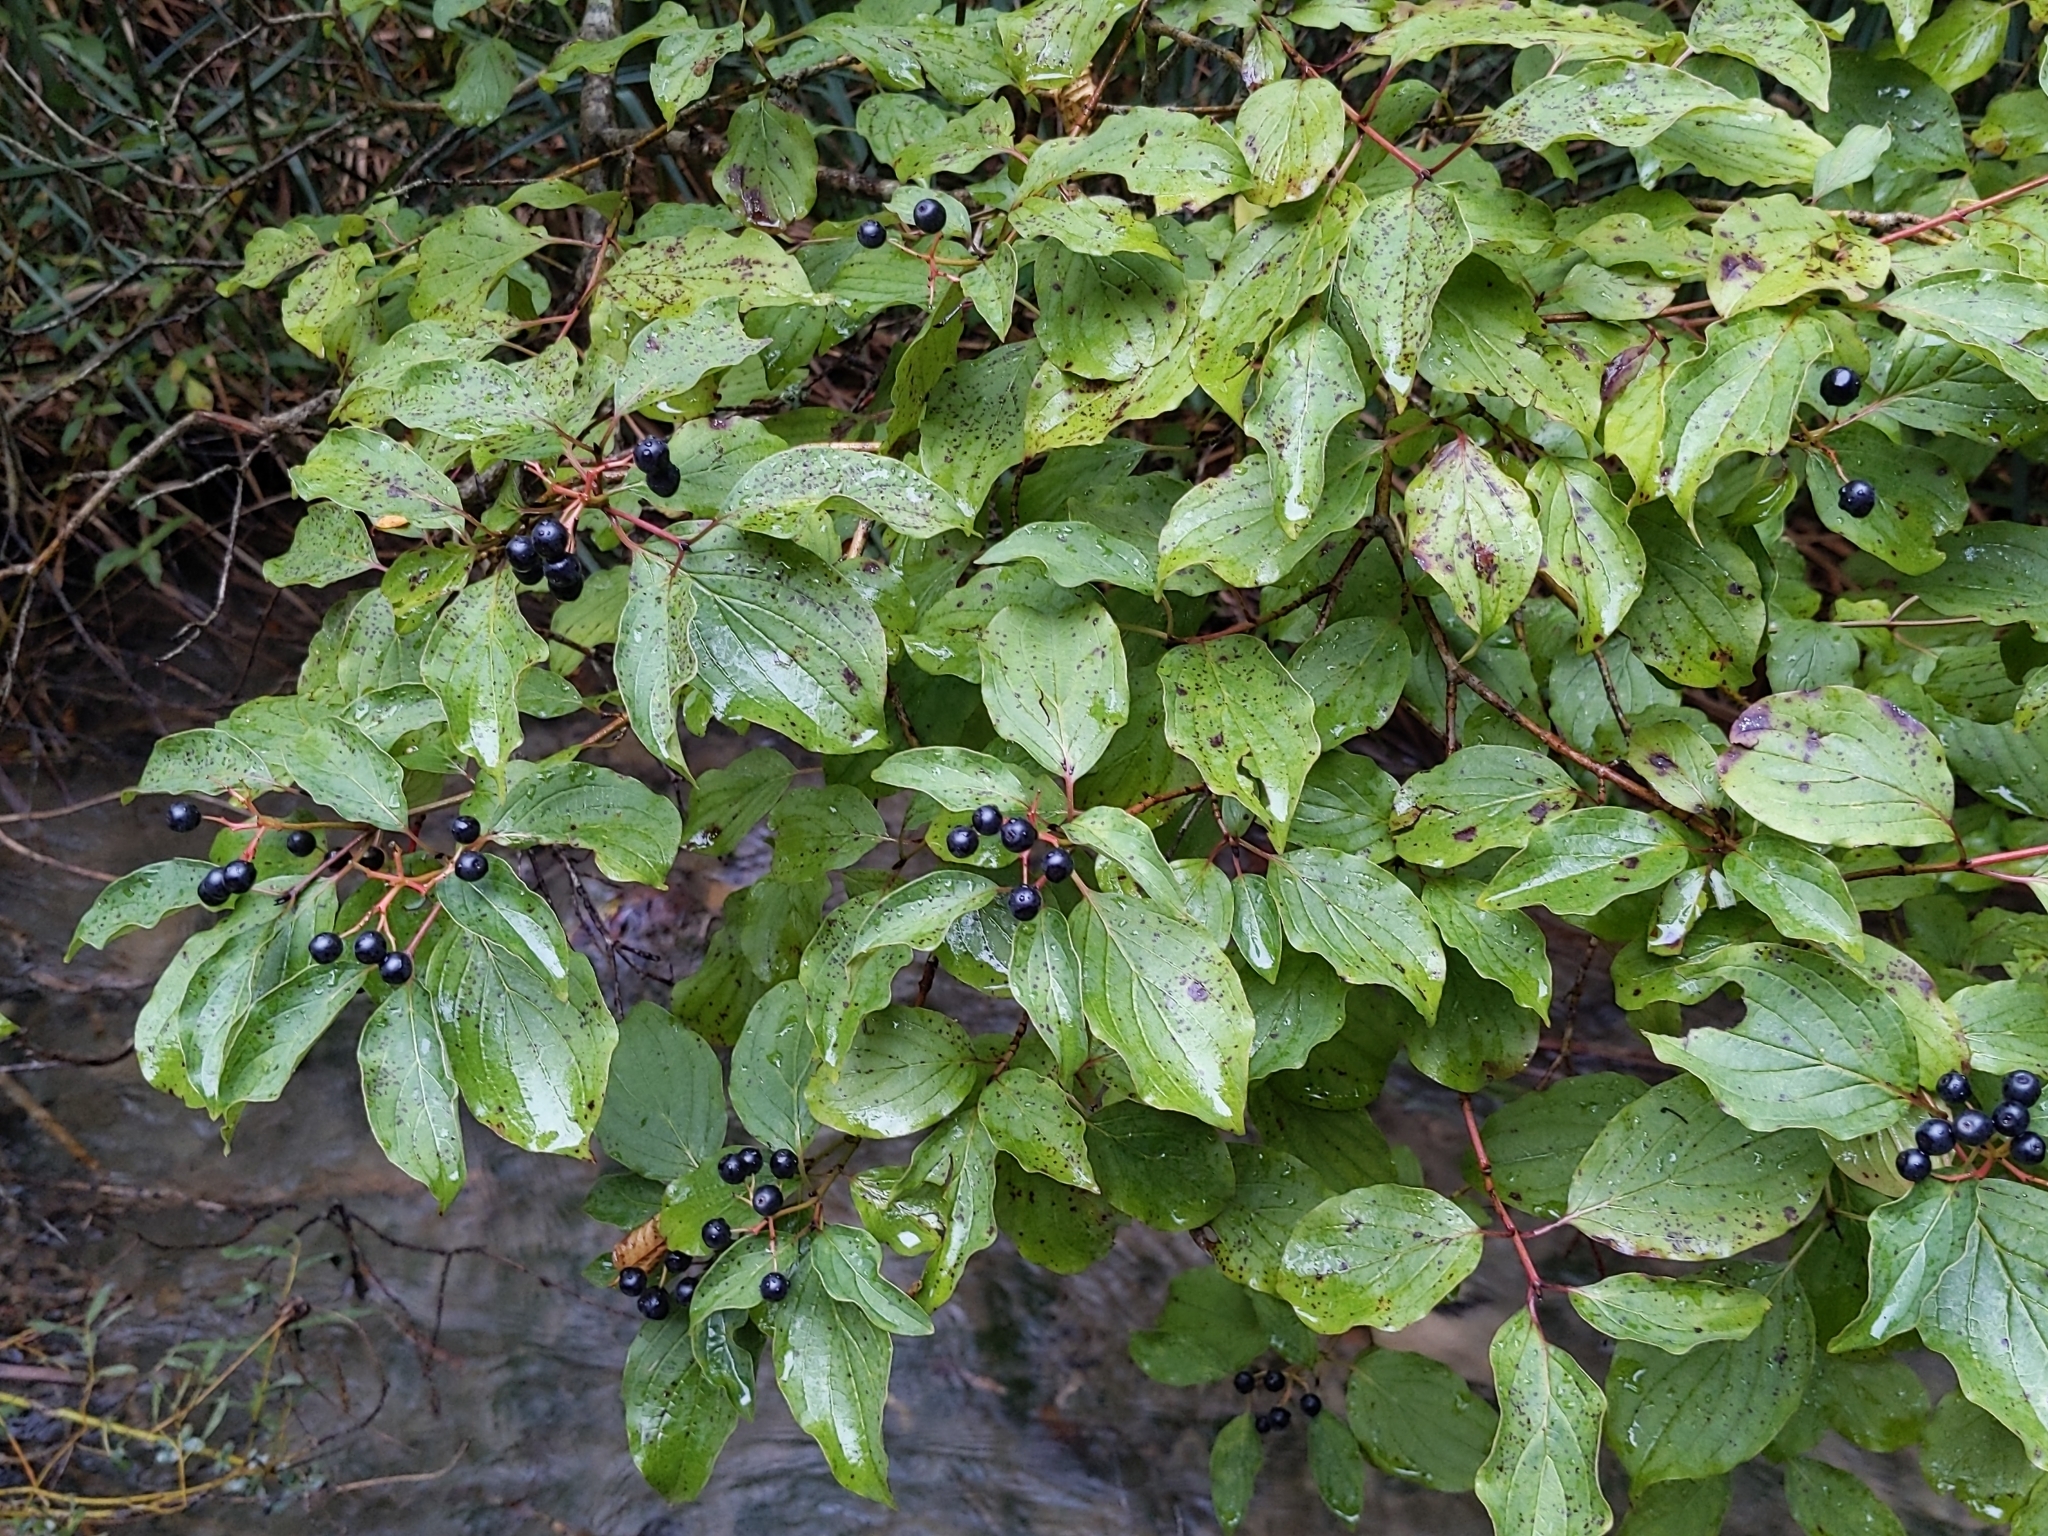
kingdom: Plantae
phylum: Tracheophyta
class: Magnoliopsida
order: Cornales
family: Cornaceae
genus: Cornus
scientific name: Cornus sanguinea
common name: Dogwood
